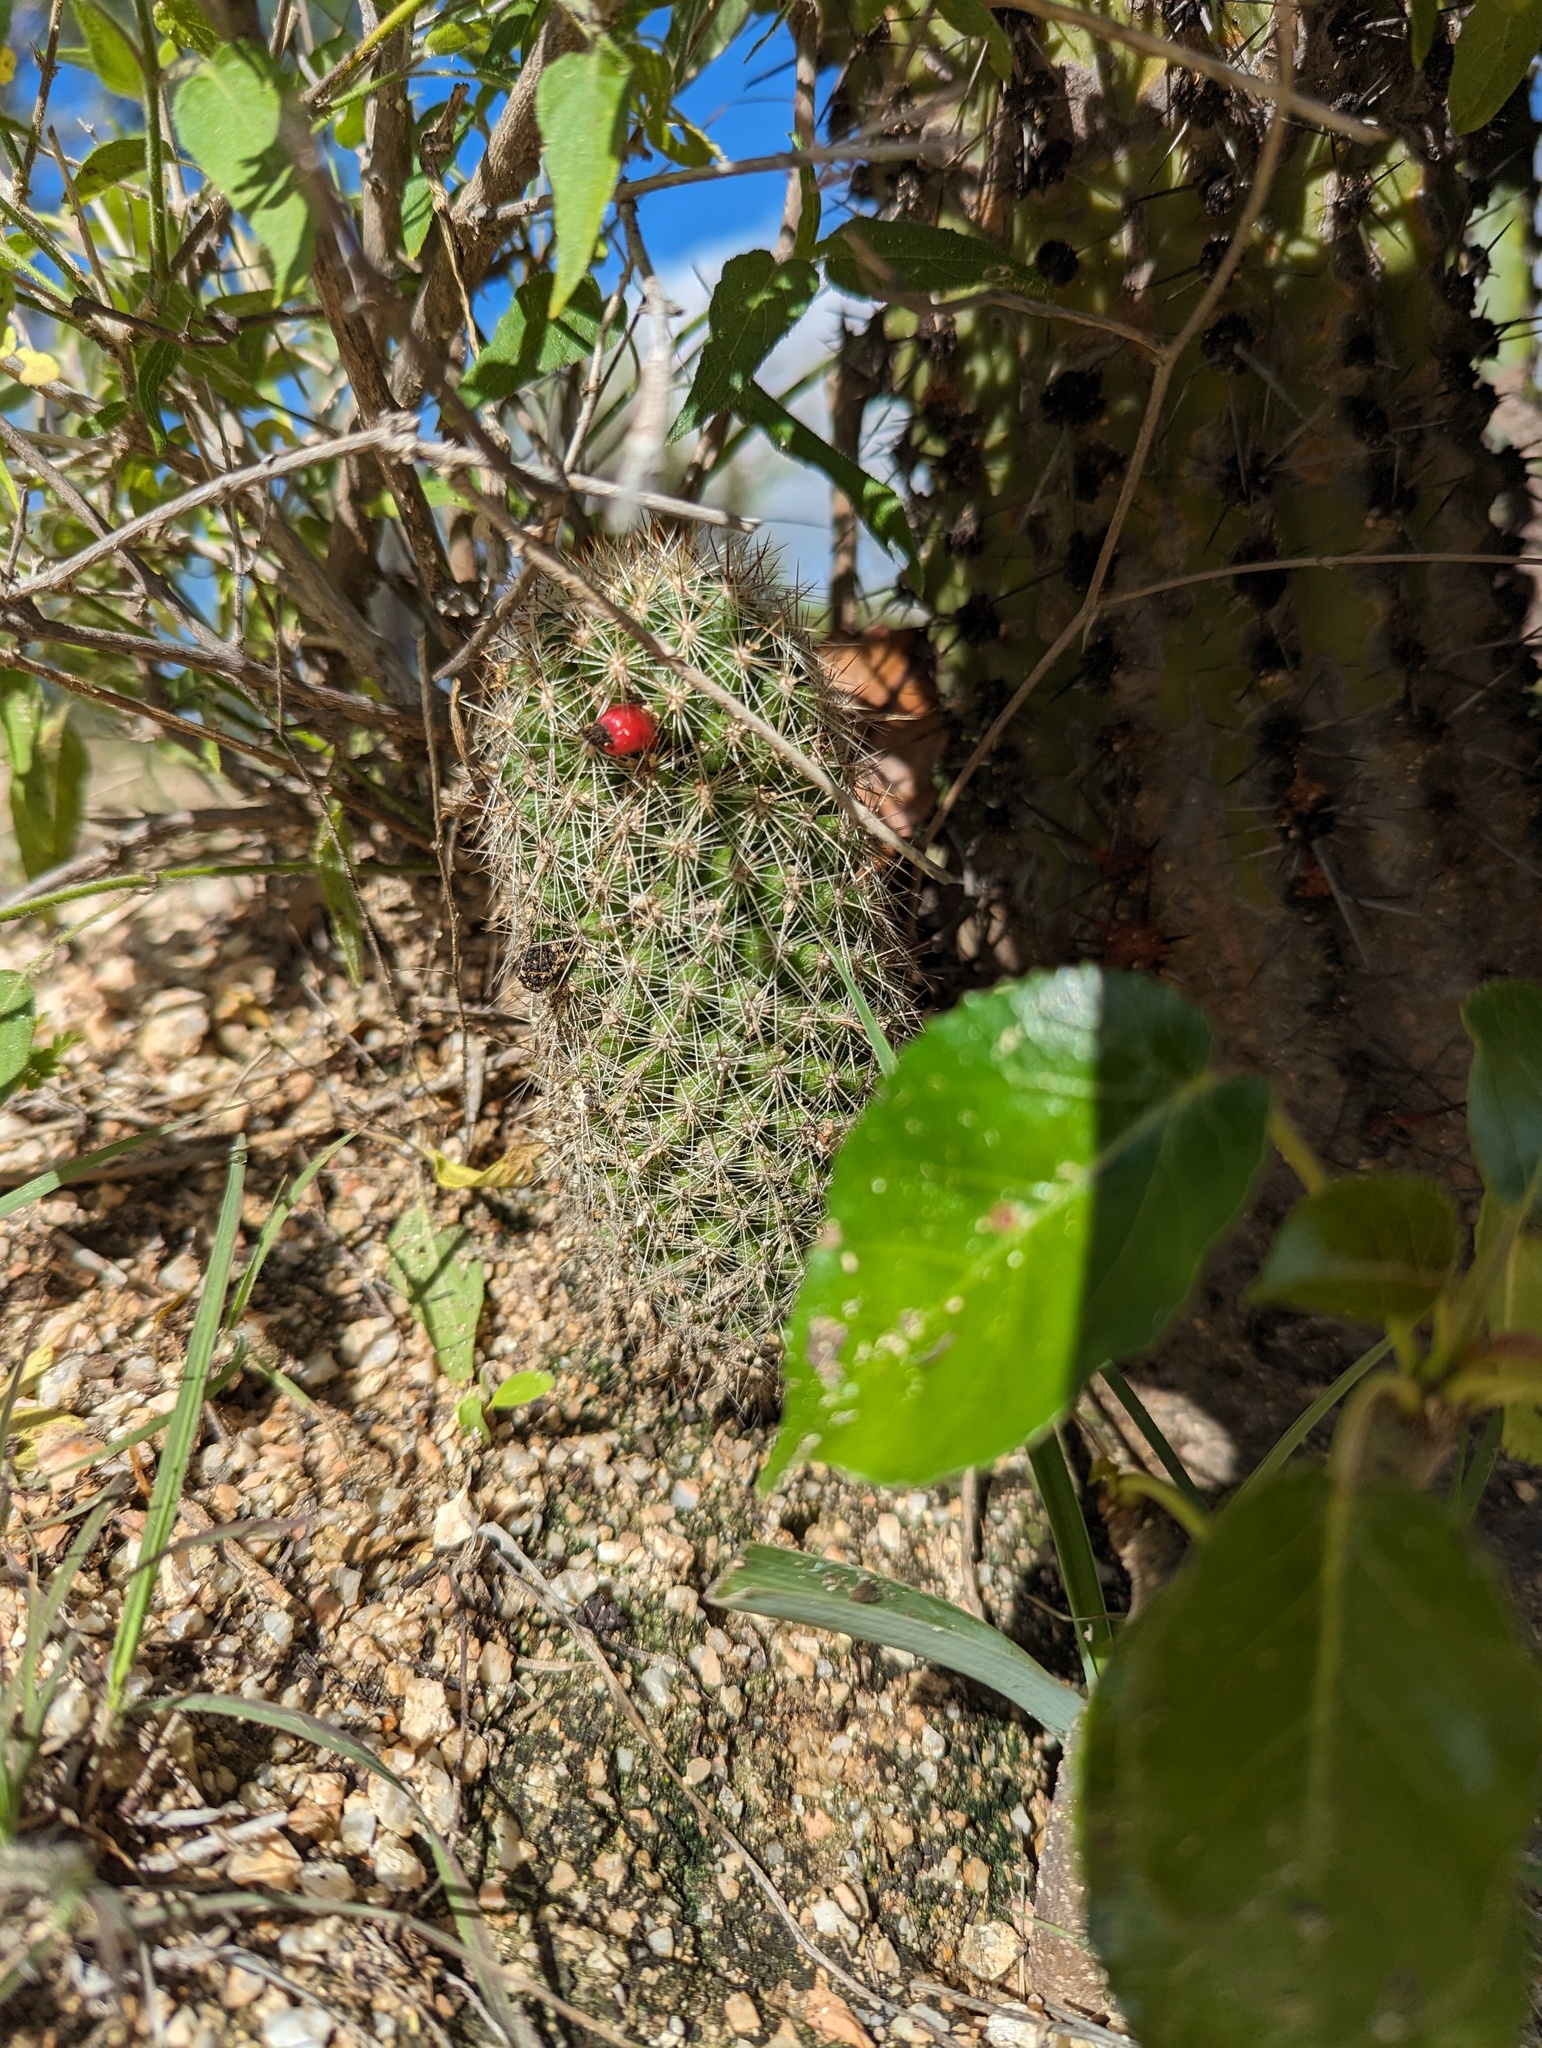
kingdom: Plantae
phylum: Tracheophyta
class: Magnoliopsida
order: Caryophyllales
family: Cactaceae
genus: Cochemiea
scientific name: Cochemiea phitauiana
